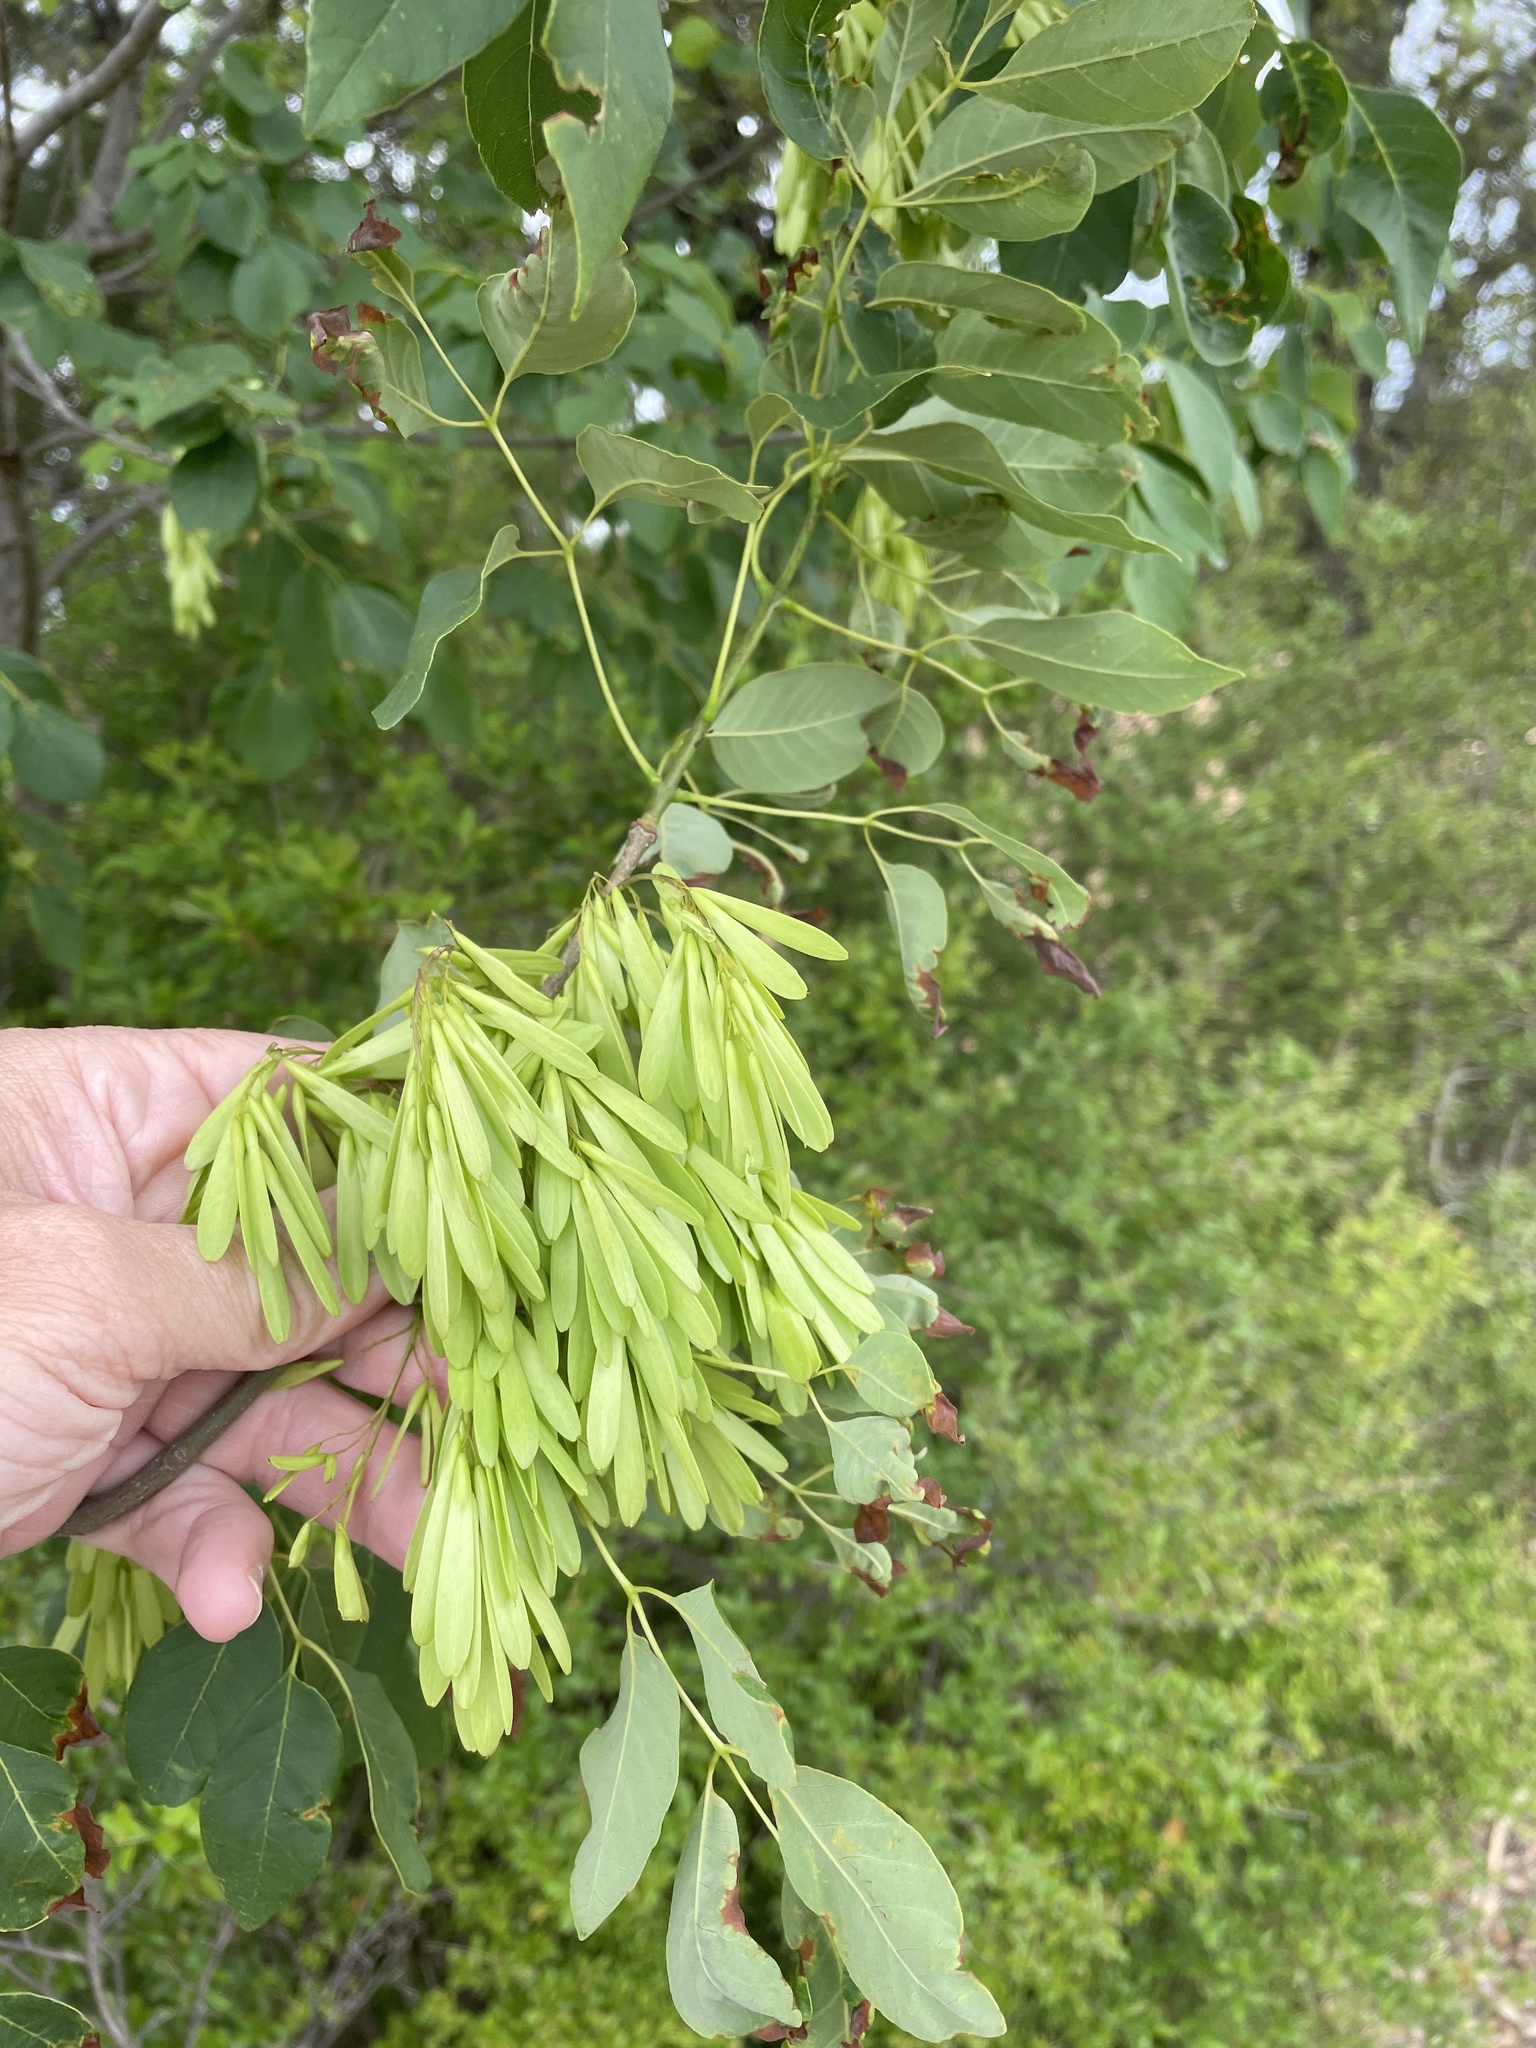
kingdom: Plantae
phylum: Tracheophyta
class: Magnoliopsida
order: Lamiales
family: Oleaceae
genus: Fraxinus
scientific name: Fraxinus albicans
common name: Texas ash
